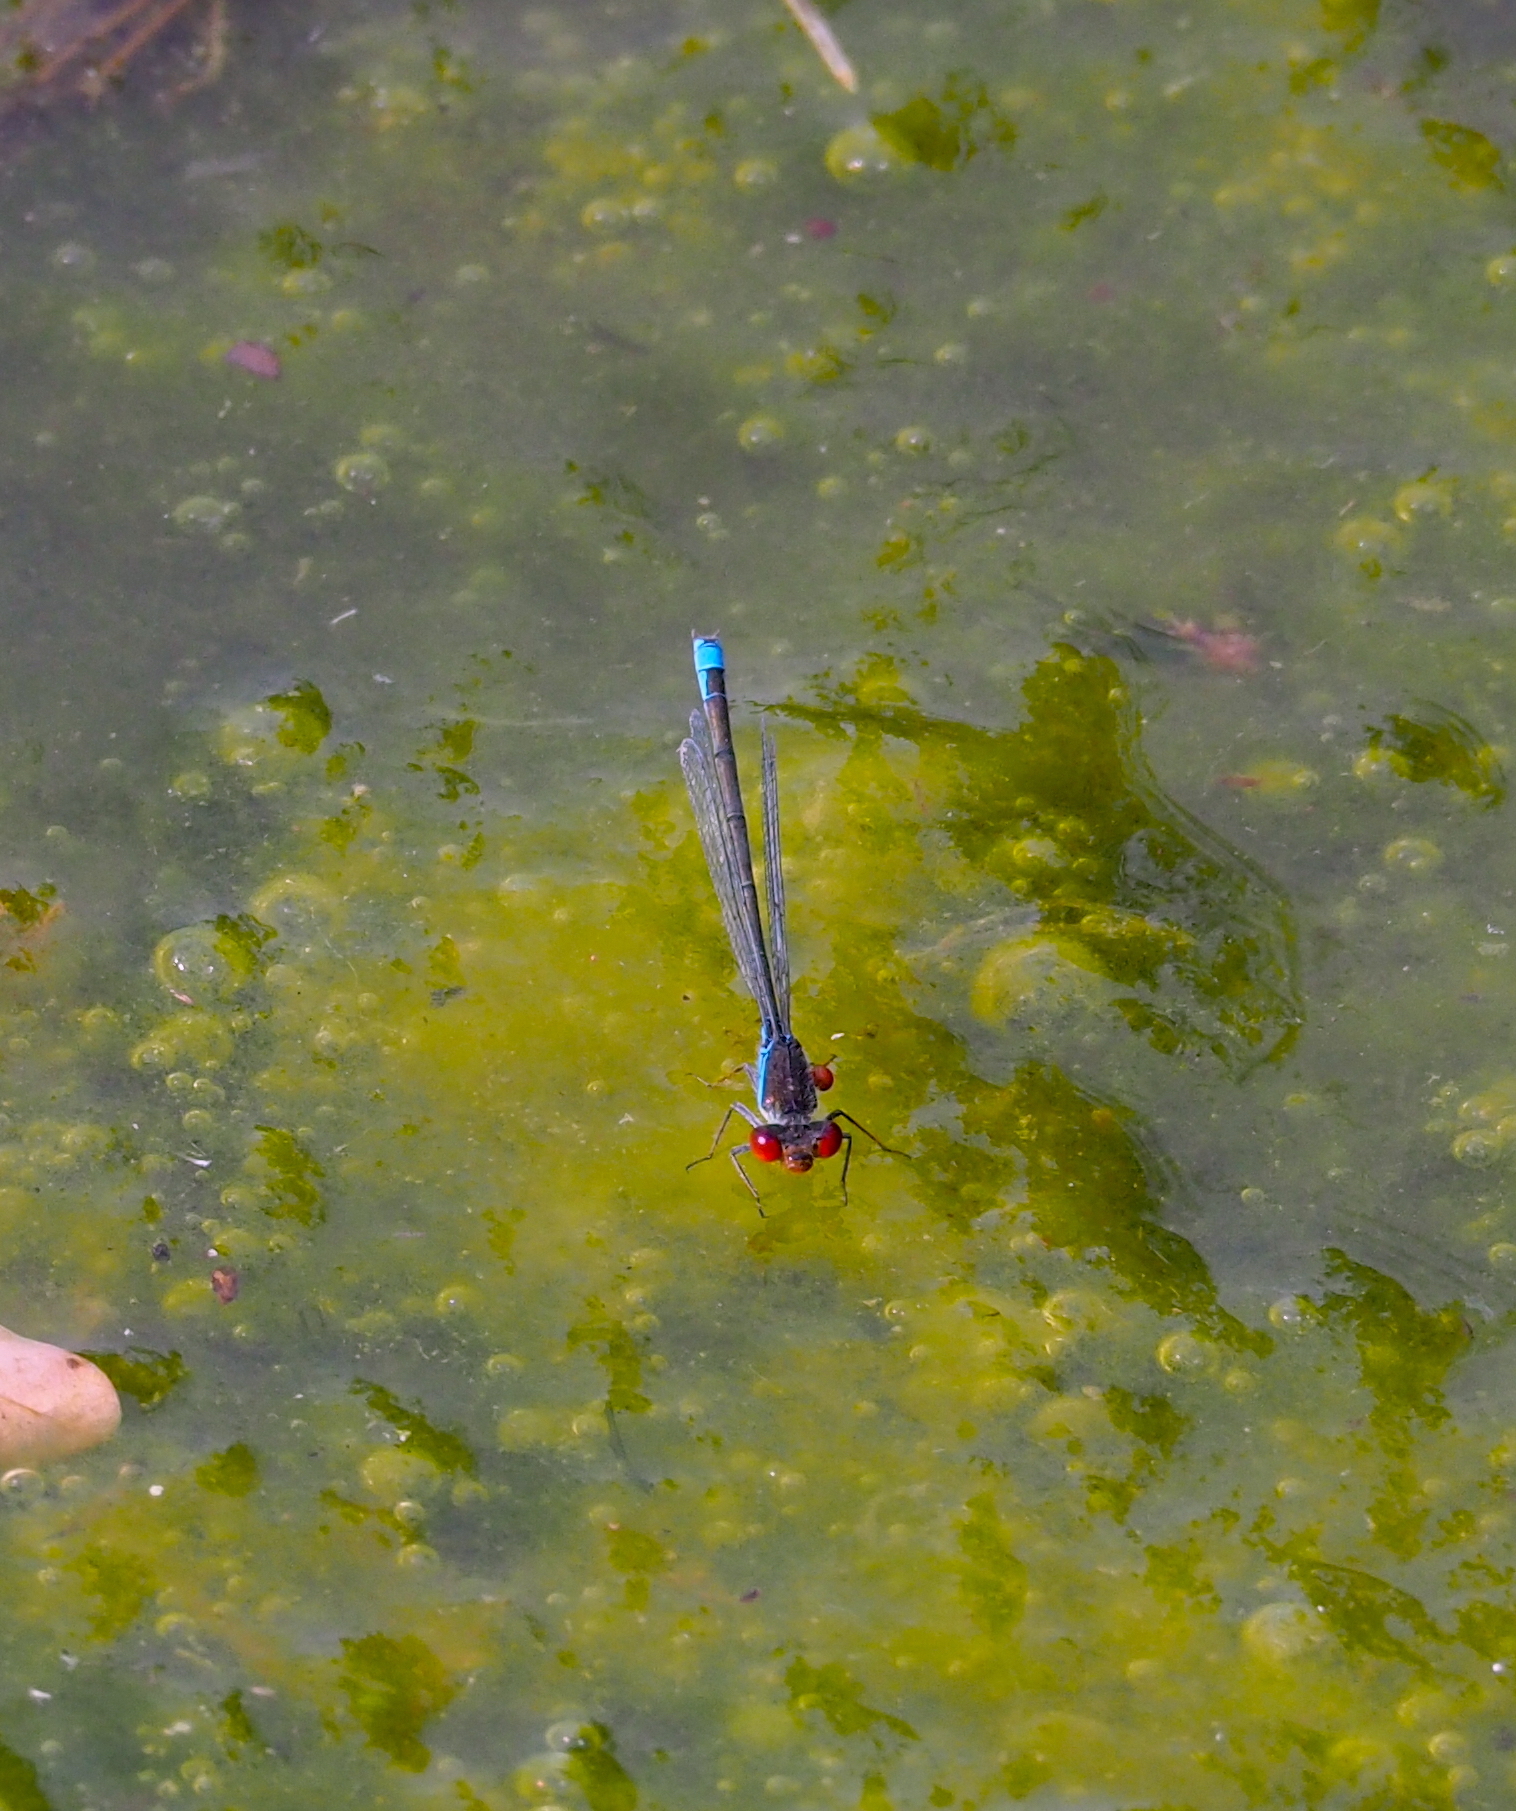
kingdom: Animalia
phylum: Arthropoda
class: Insecta
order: Odonata
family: Coenagrionidae
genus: Erythromma
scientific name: Erythromma viridulum
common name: Small red-eyed damselfly
